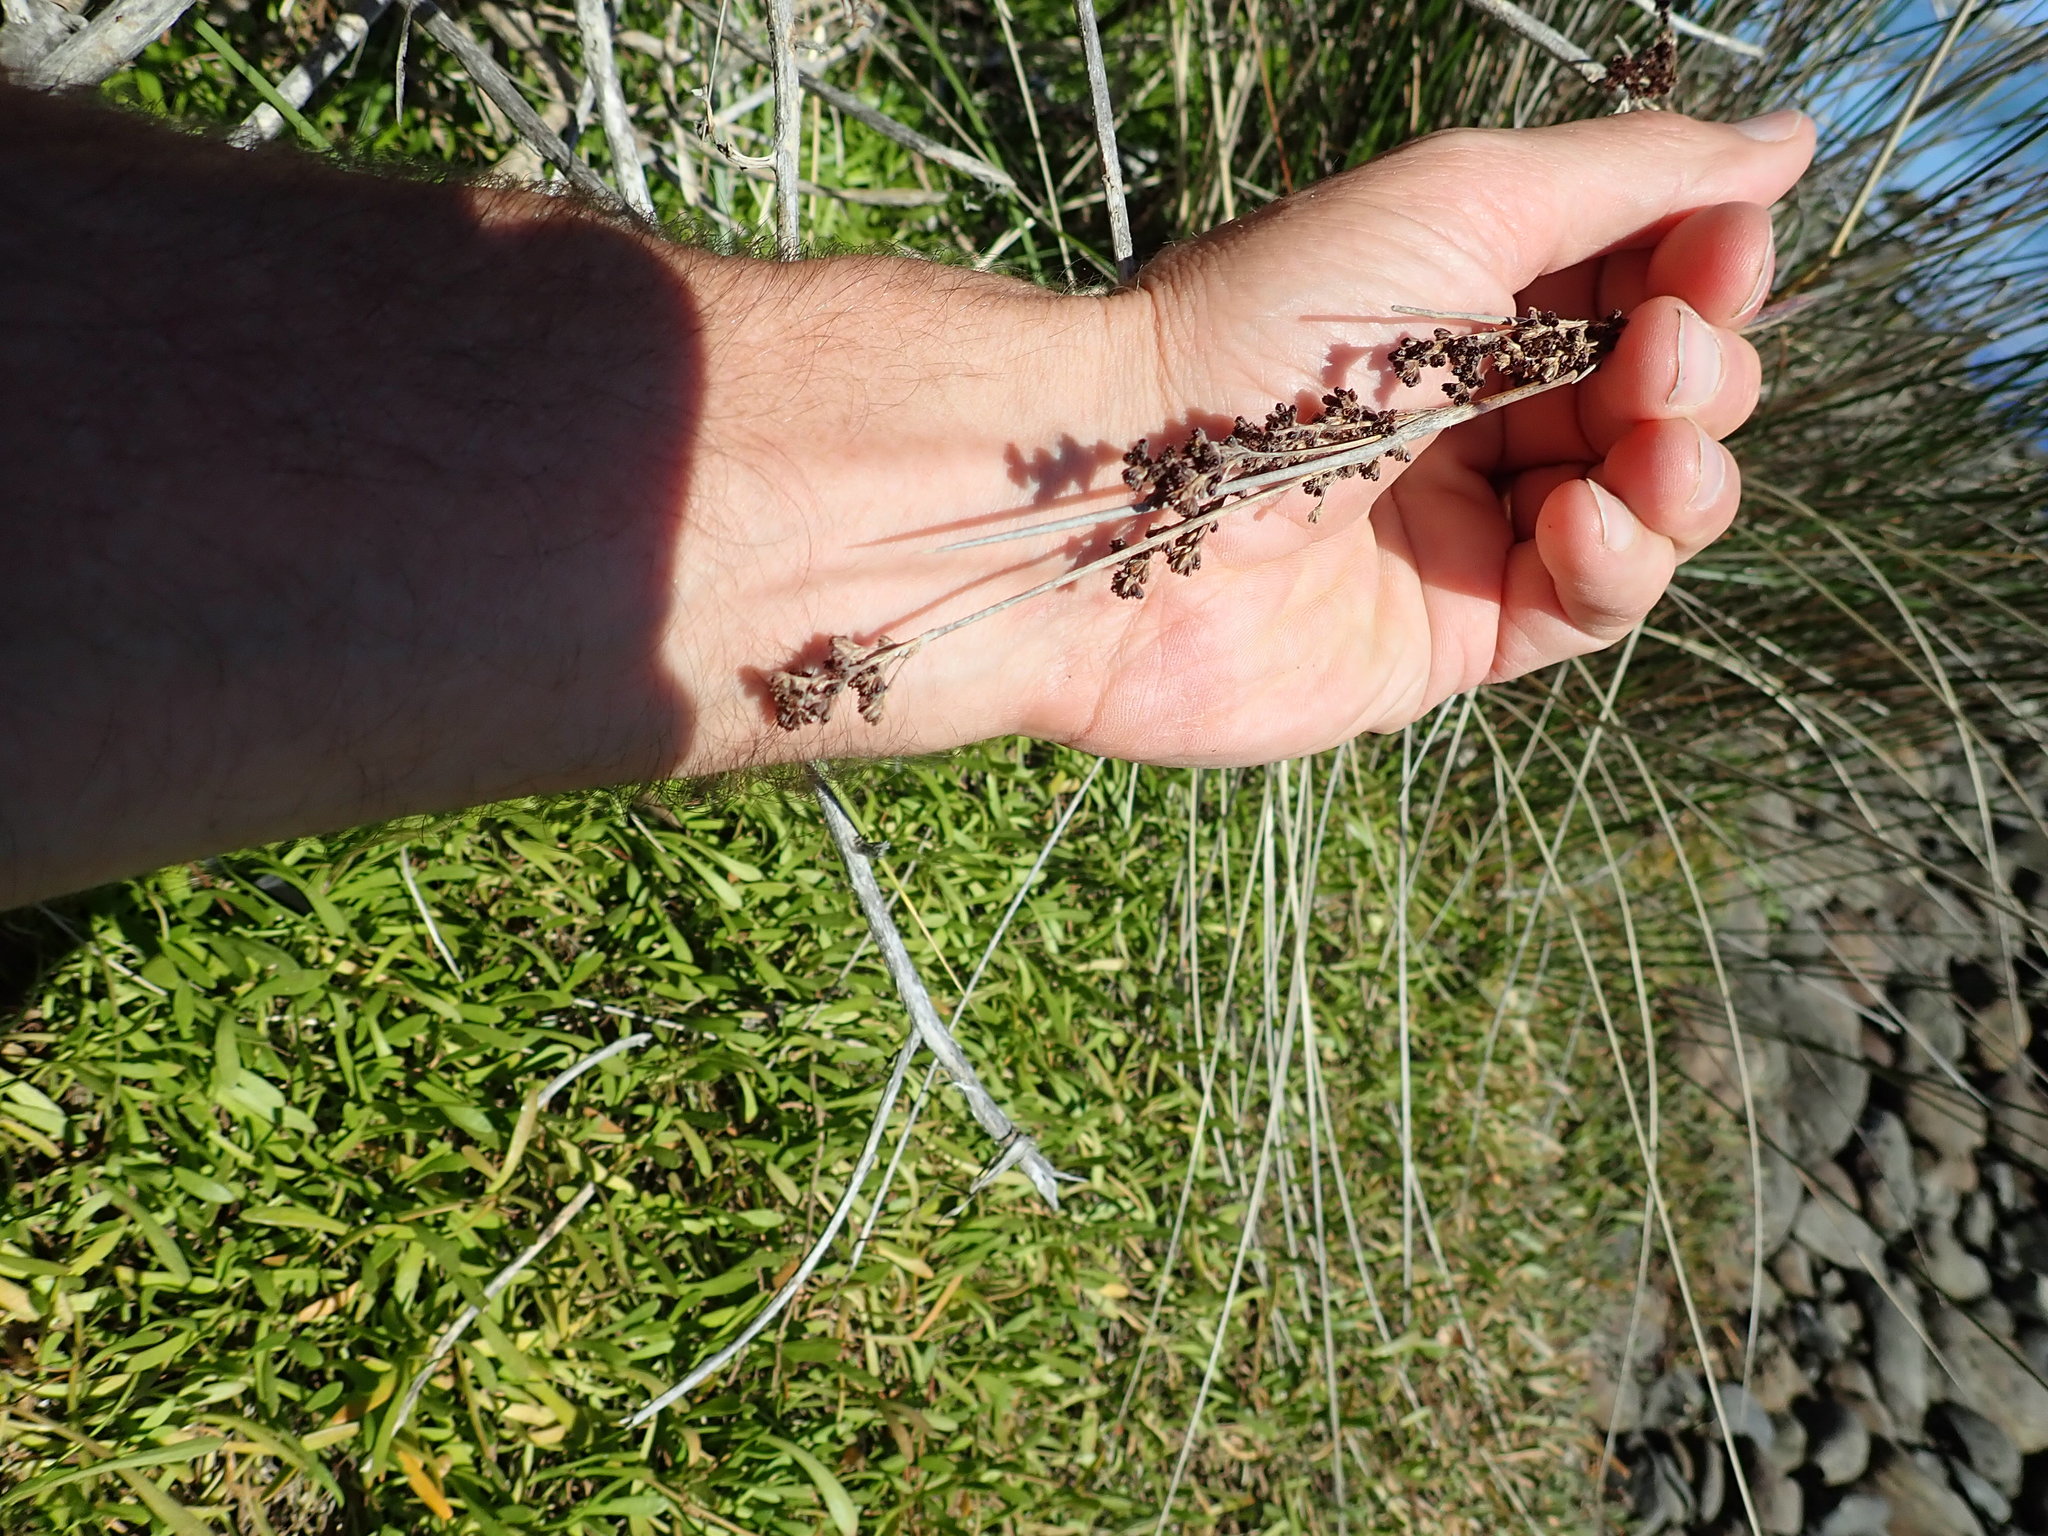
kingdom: Plantae
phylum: Tracheophyta
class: Liliopsida
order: Poales
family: Juncaceae
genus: Juncus
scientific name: Juncus kraussii
